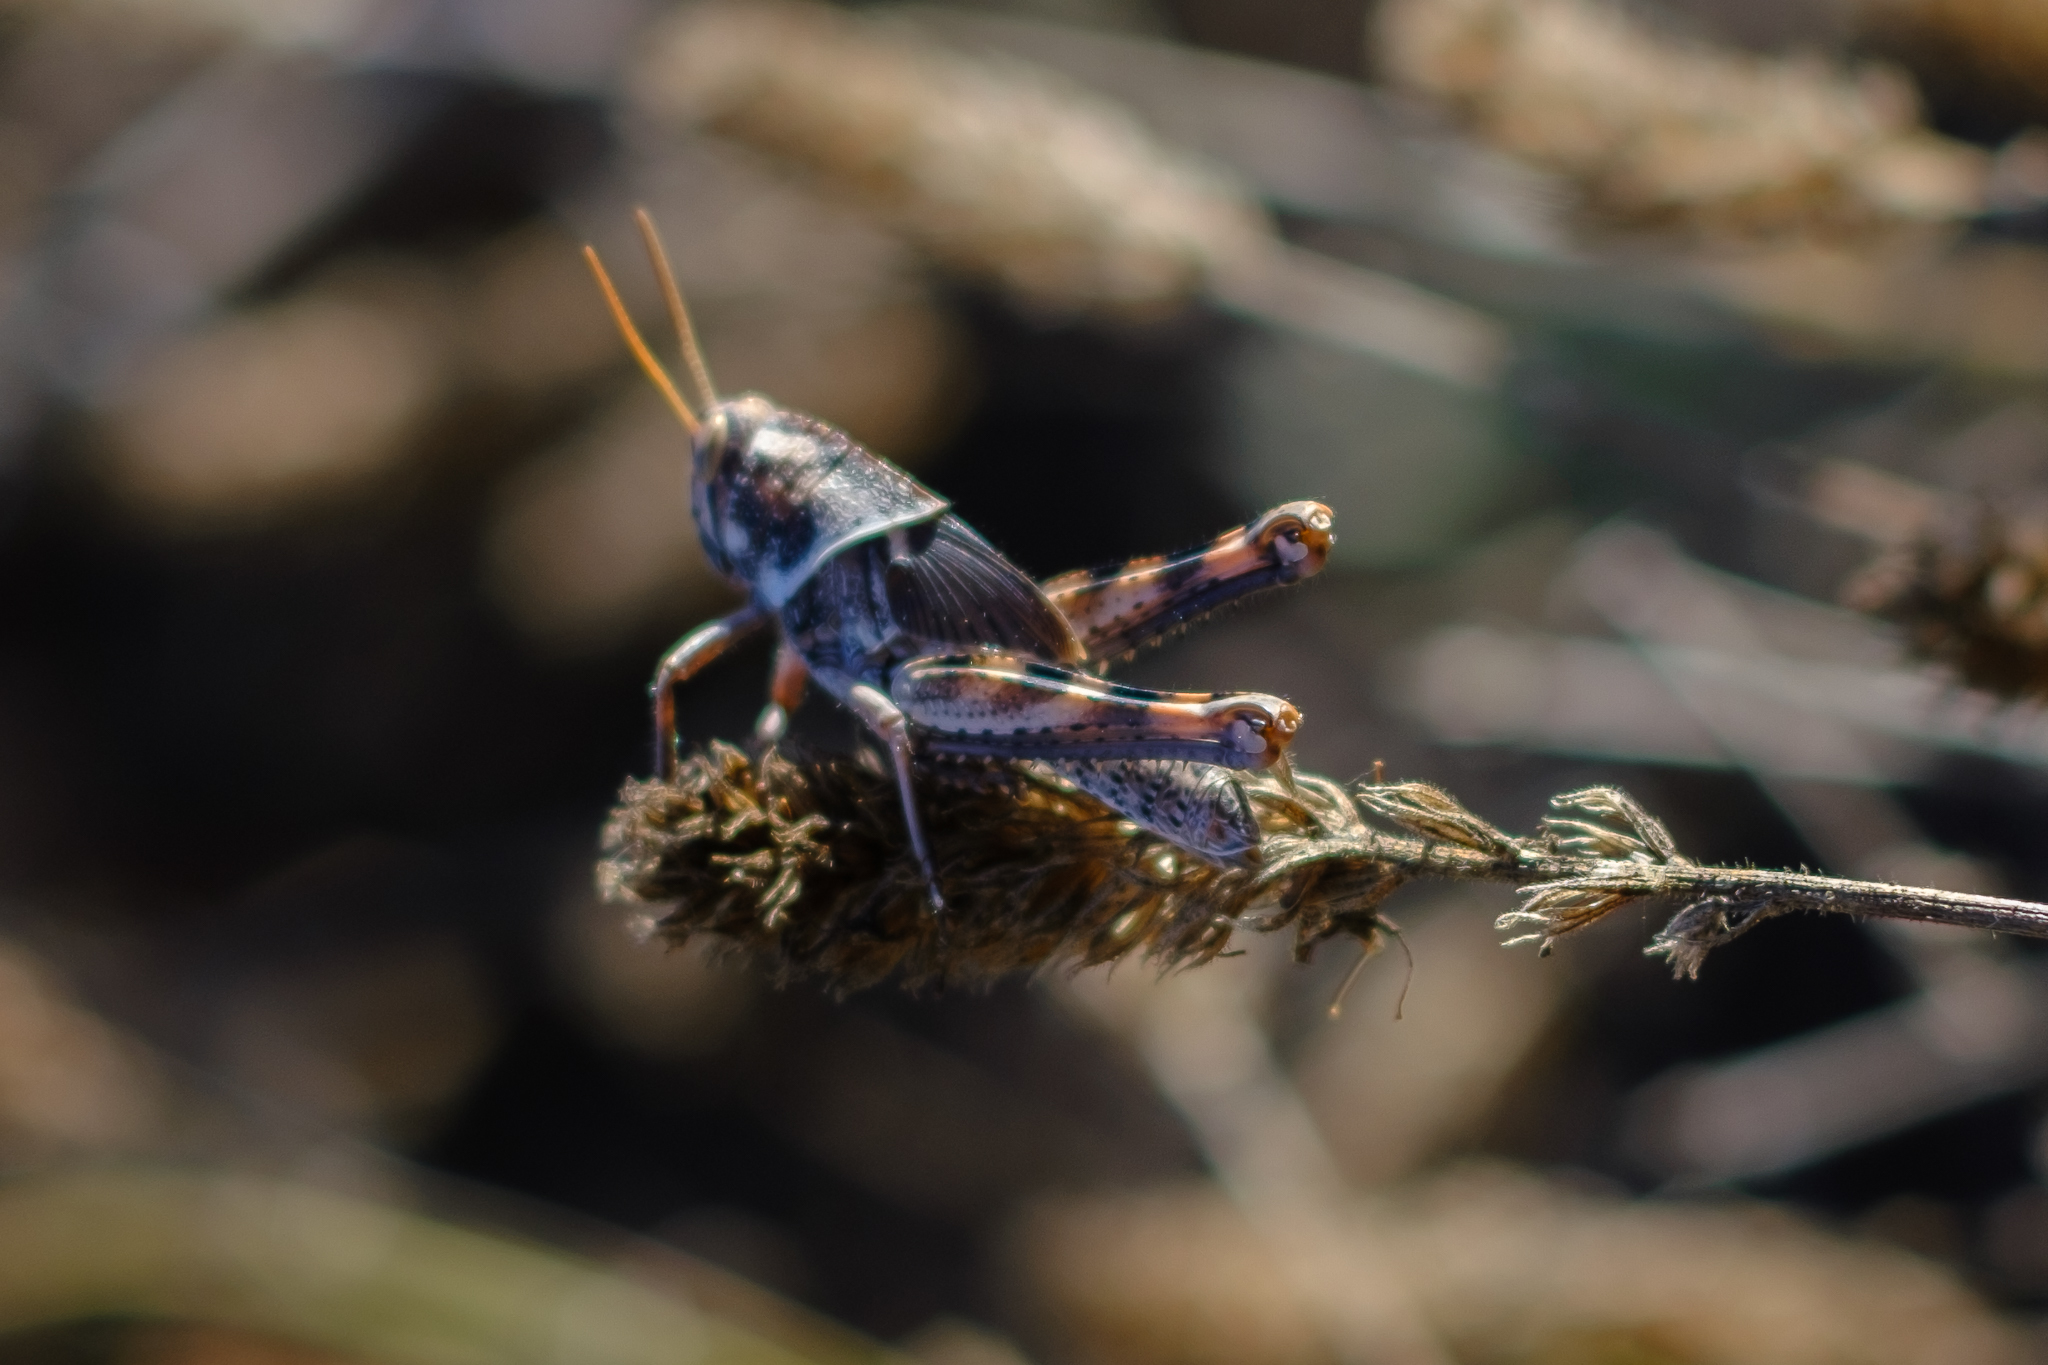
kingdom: Animalia
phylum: Arthropoda
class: Insecta
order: Orthoptera
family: Acrididae
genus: Schistocerca
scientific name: Schistocerca nitens
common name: Vagrant grasshopper
